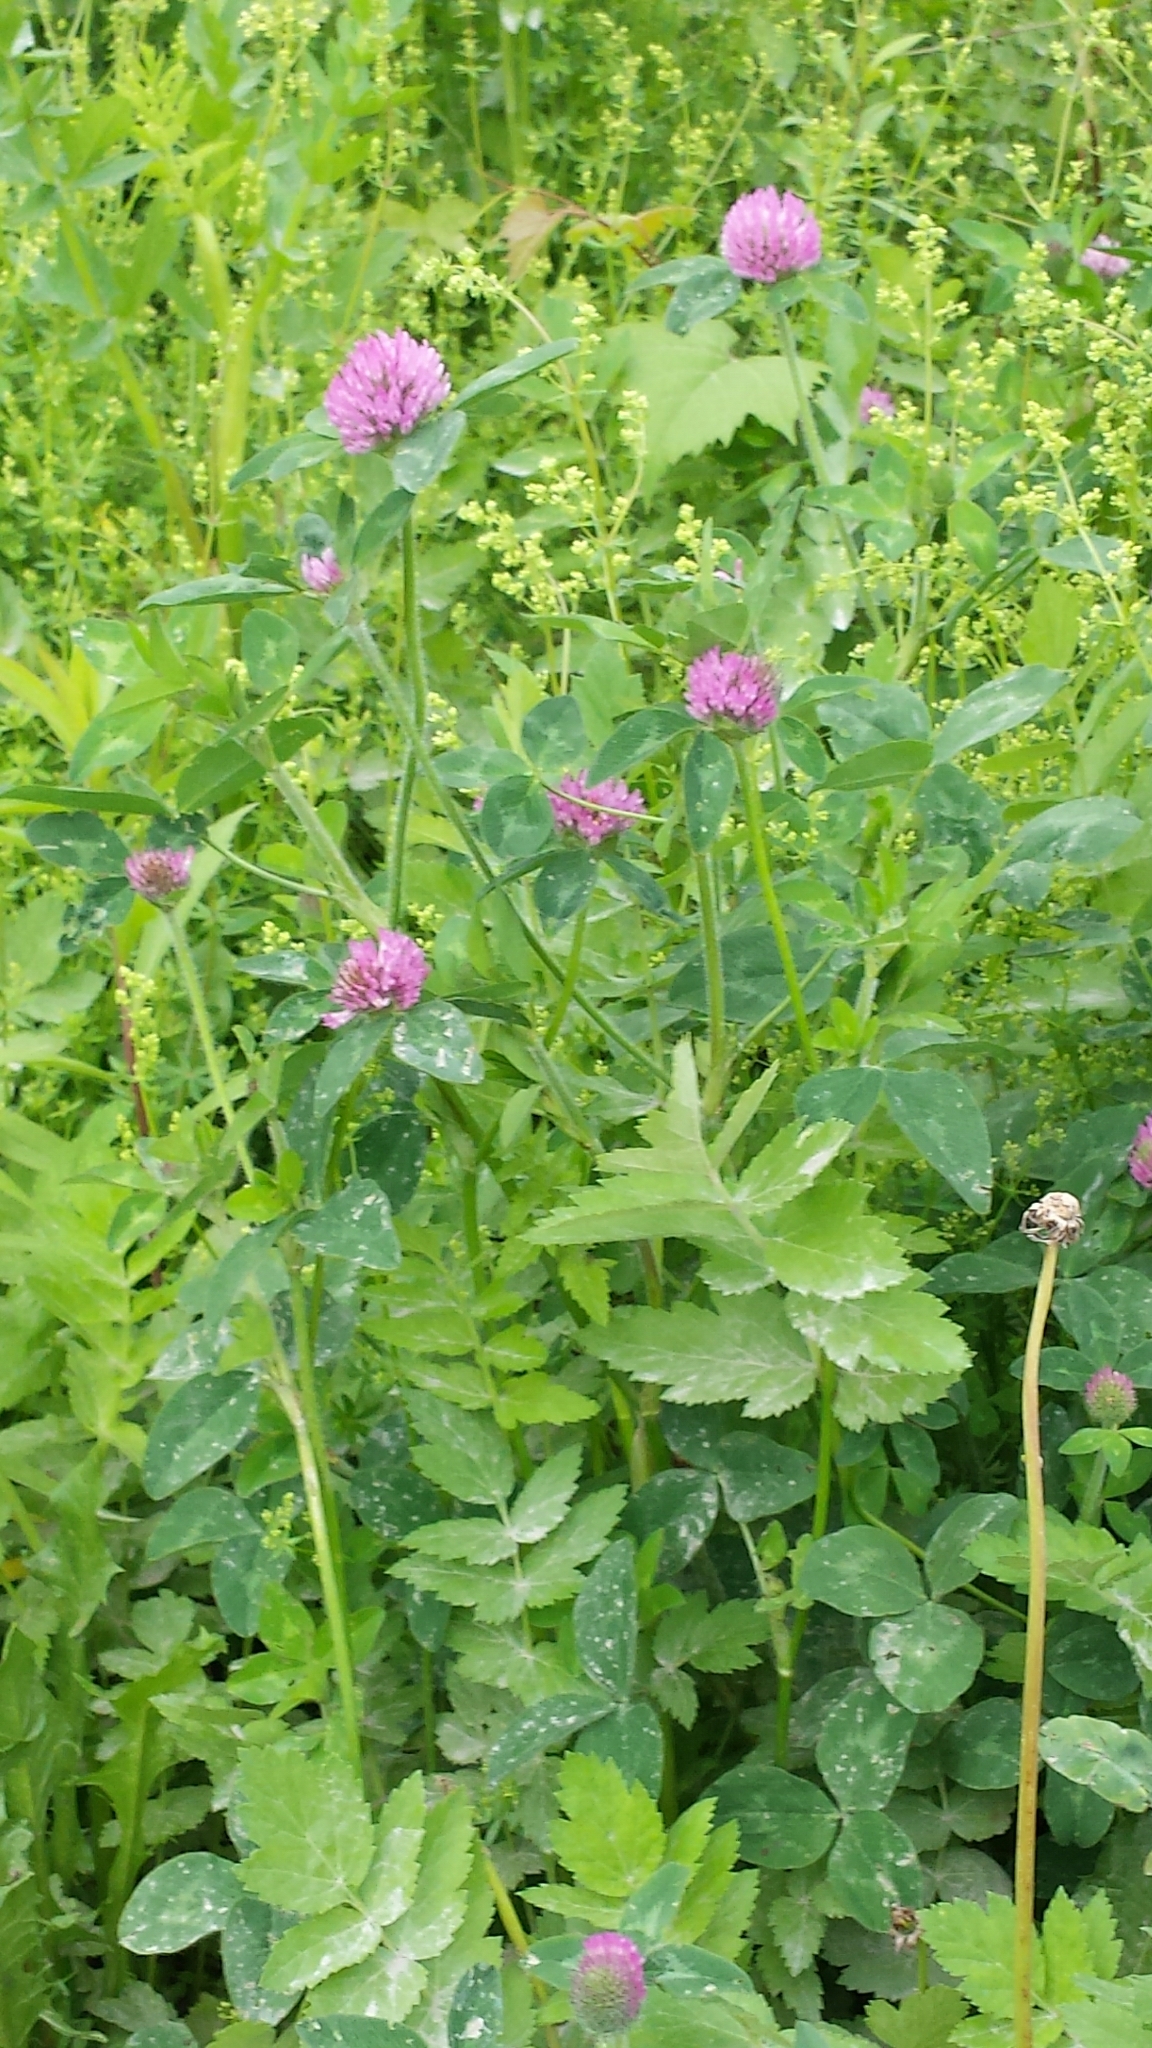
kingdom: Plantae
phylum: Tracheophyta
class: Magnoliopsida
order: Fabales
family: Fabaceae
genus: Trifolium
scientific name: Trifolium pratense
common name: Red clover
